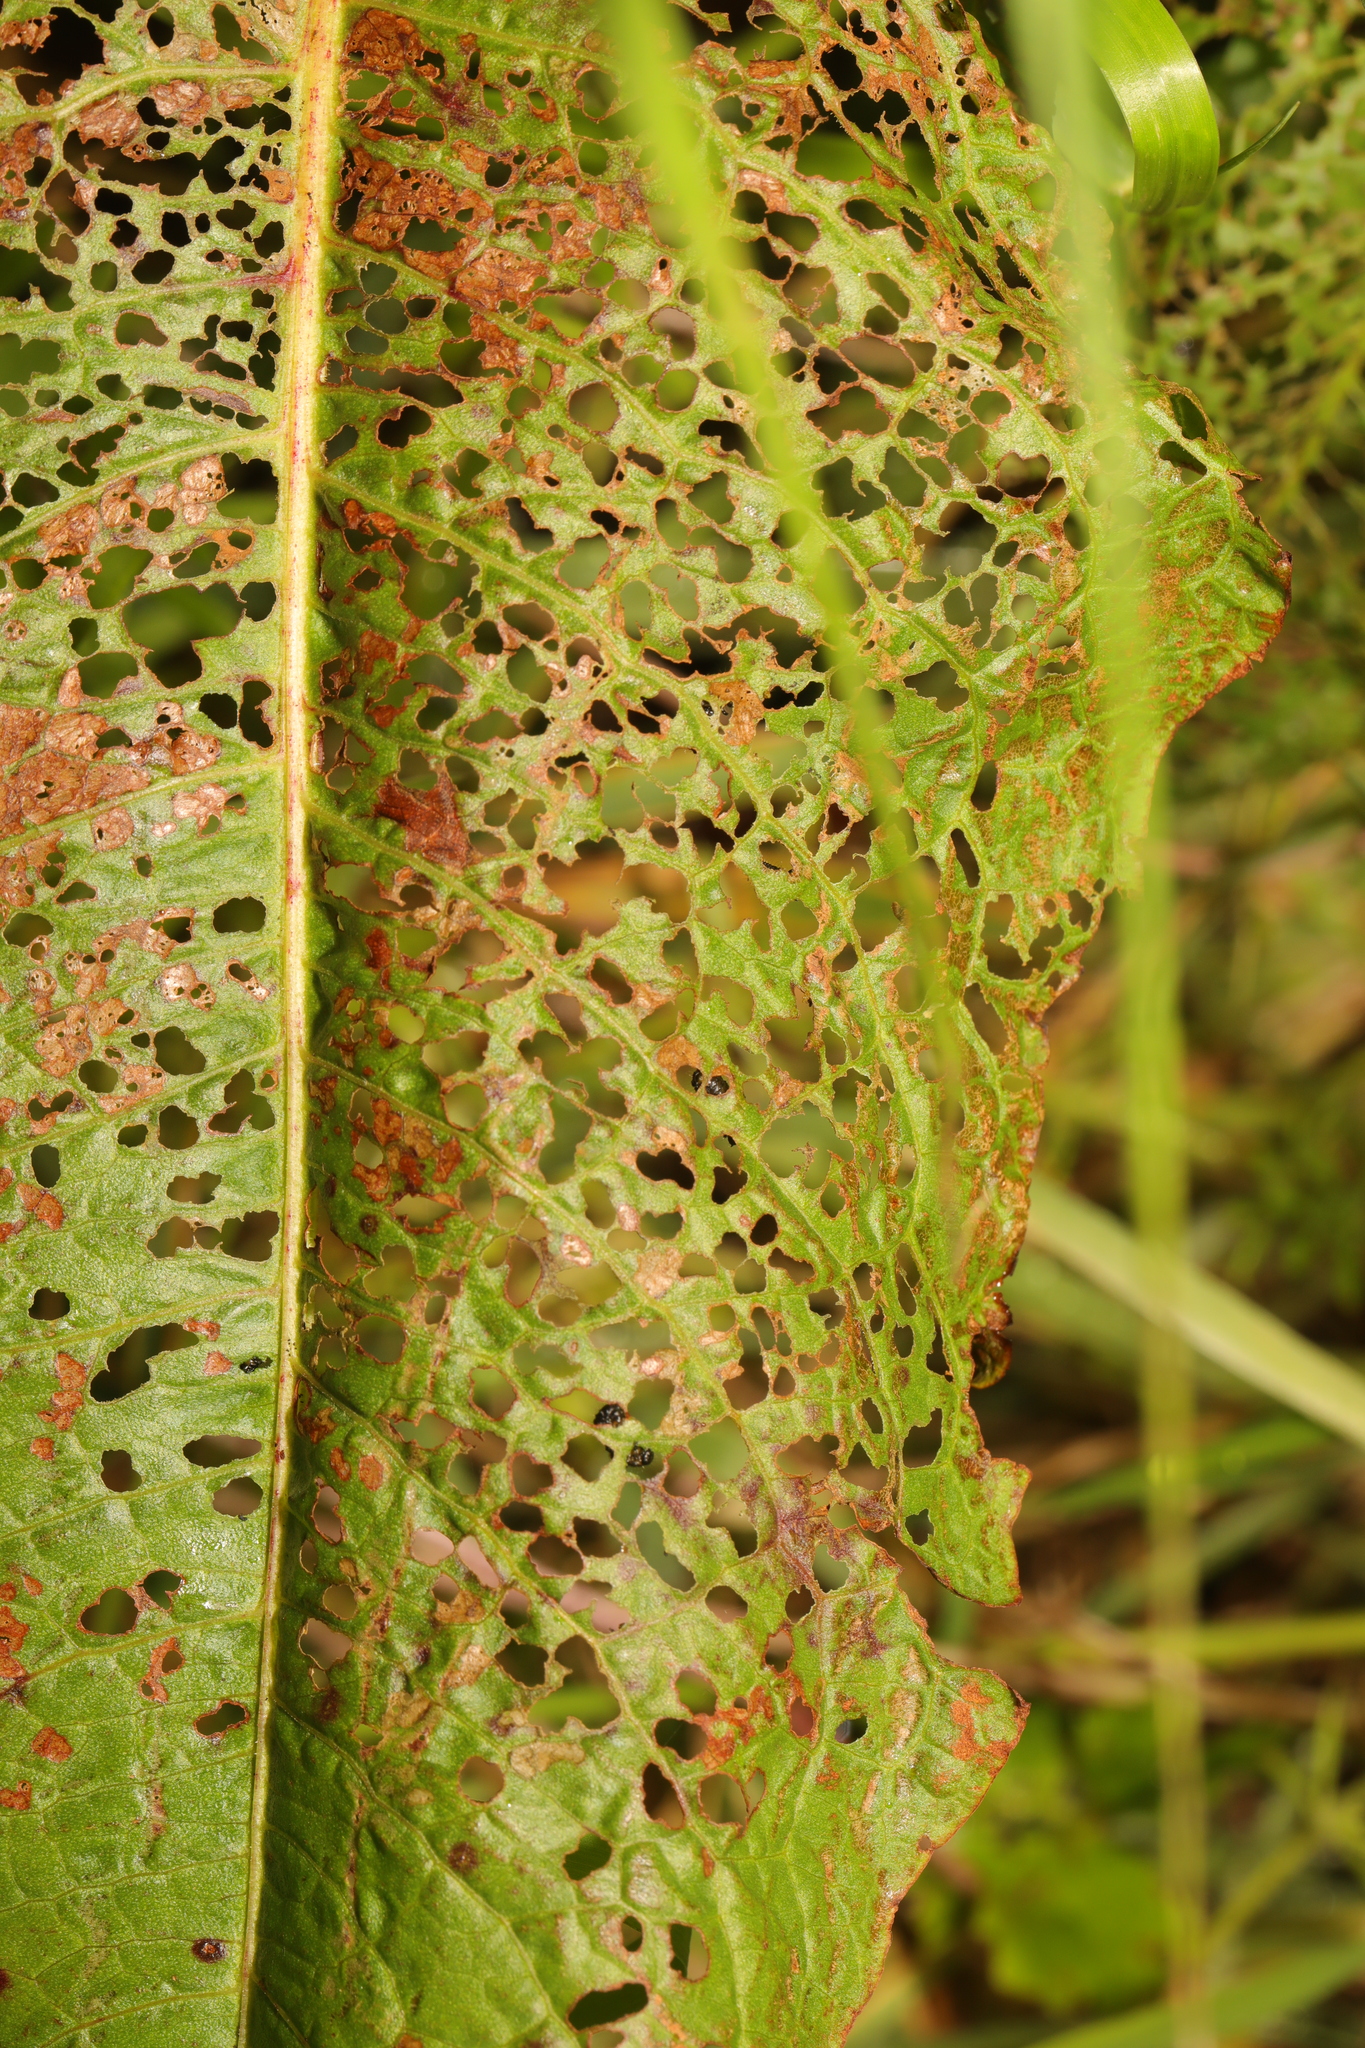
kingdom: Animalia
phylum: Arthropoda
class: Insecta
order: Coleoptera
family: Chrysomelidae
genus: Gastrophysa
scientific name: Gastrophysa viridula
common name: Green dock beetle
